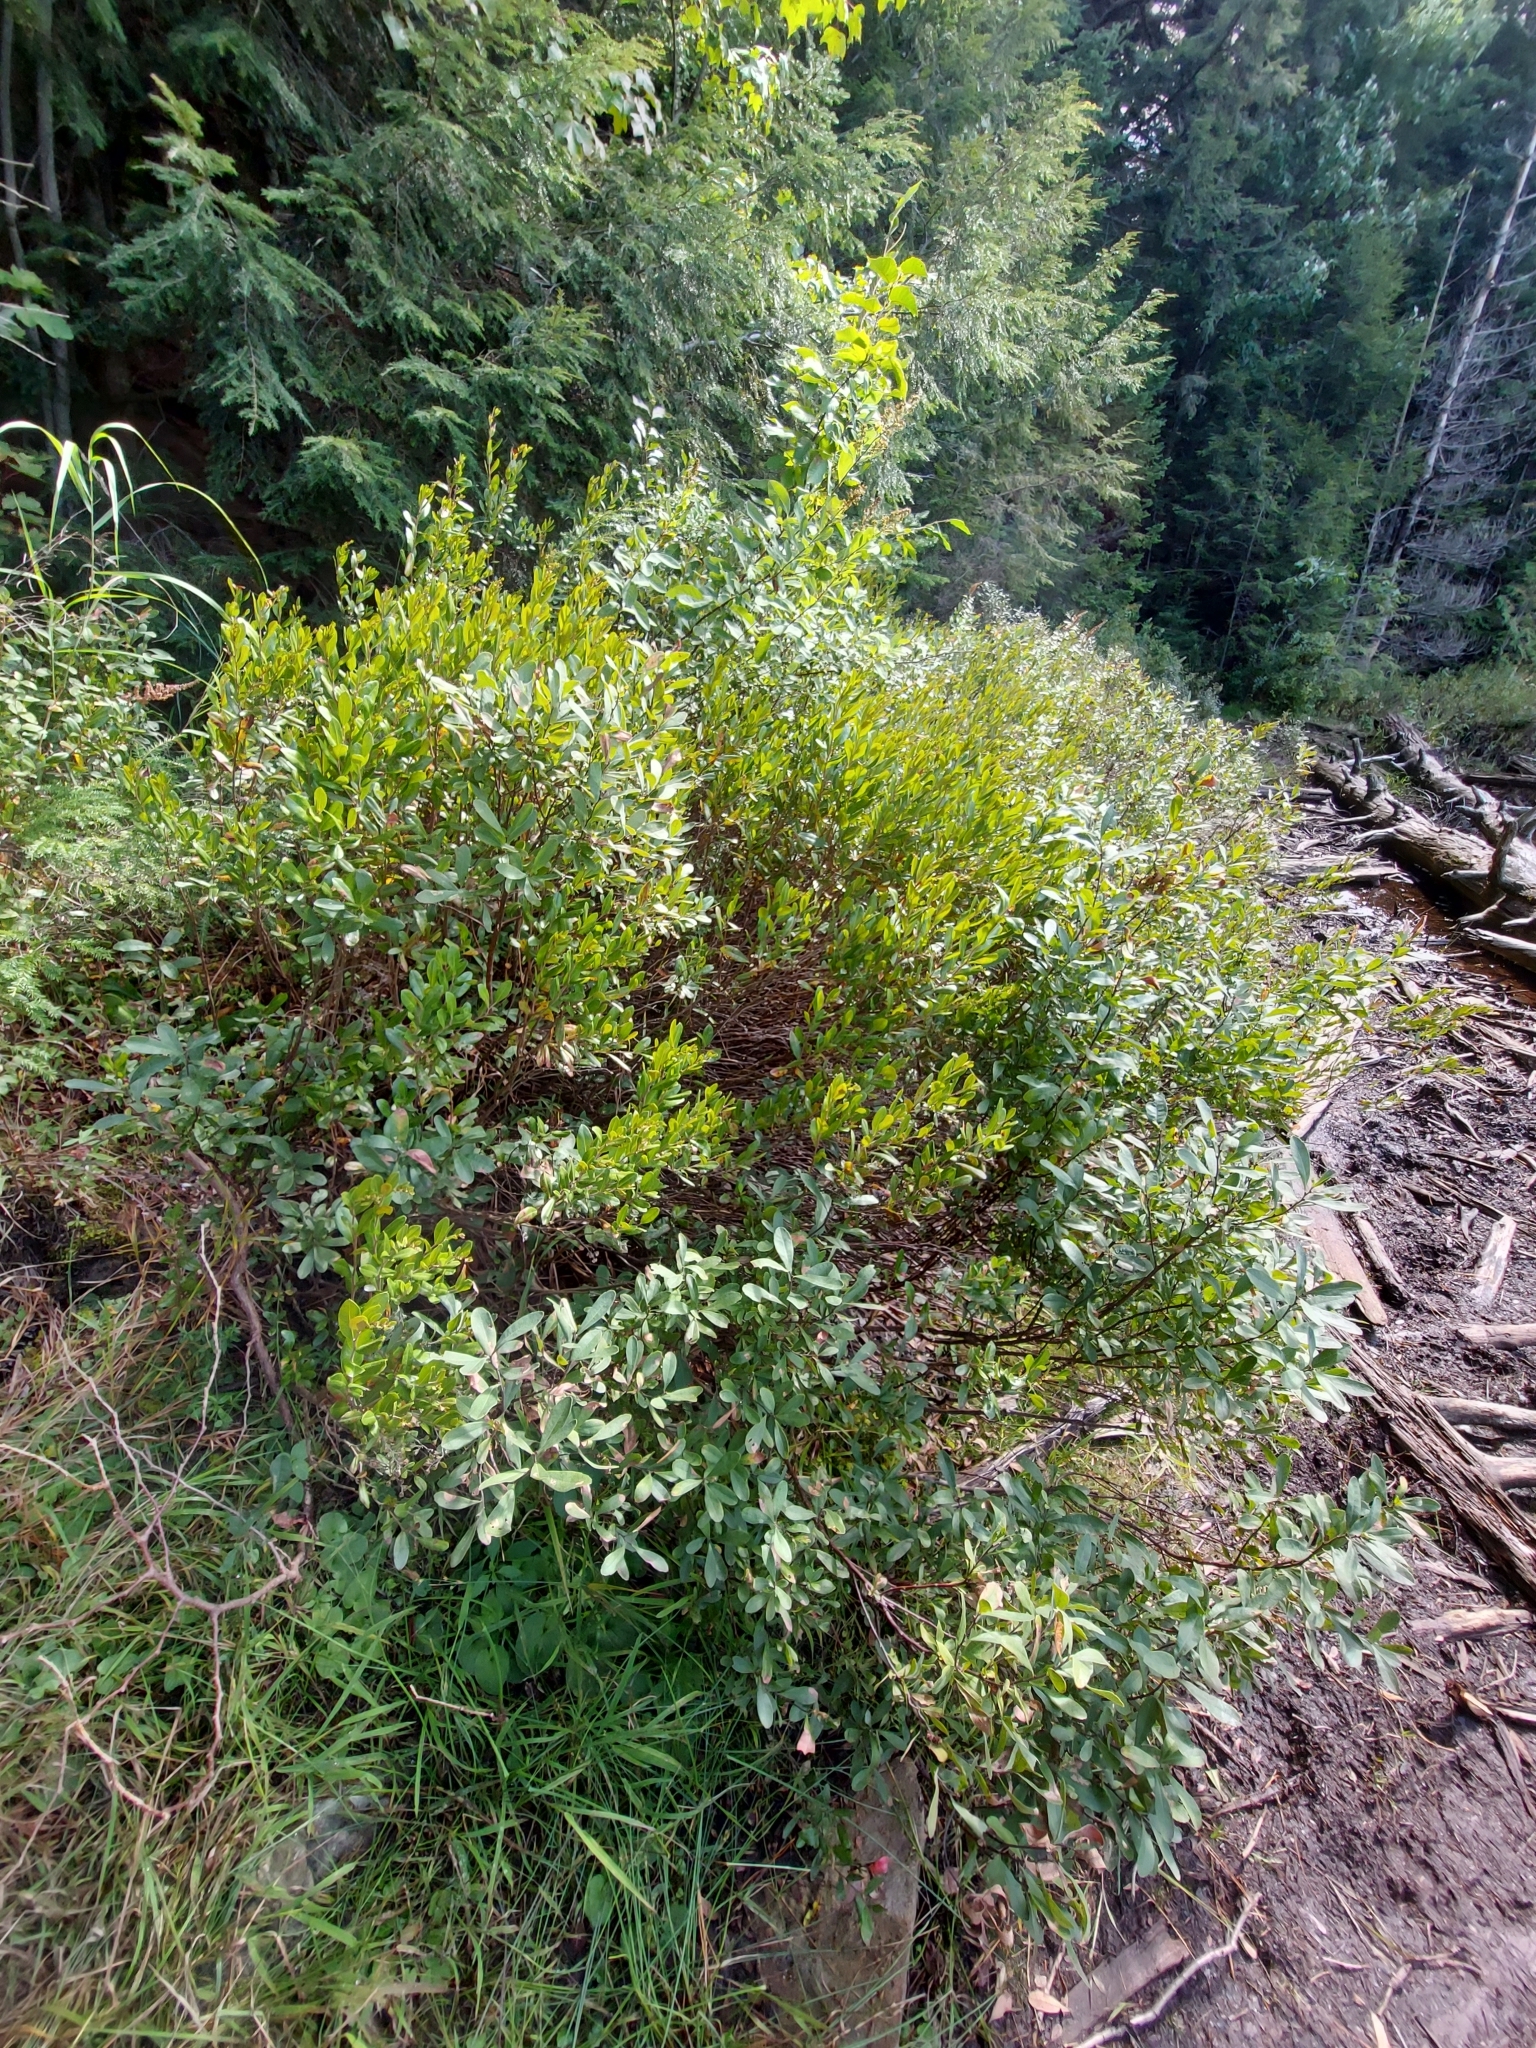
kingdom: Plantae
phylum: Tracheophyta
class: Magnoliopsida
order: Fagales
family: Myricaceae
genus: Myrica
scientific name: Myrica gale
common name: Sweet gale
